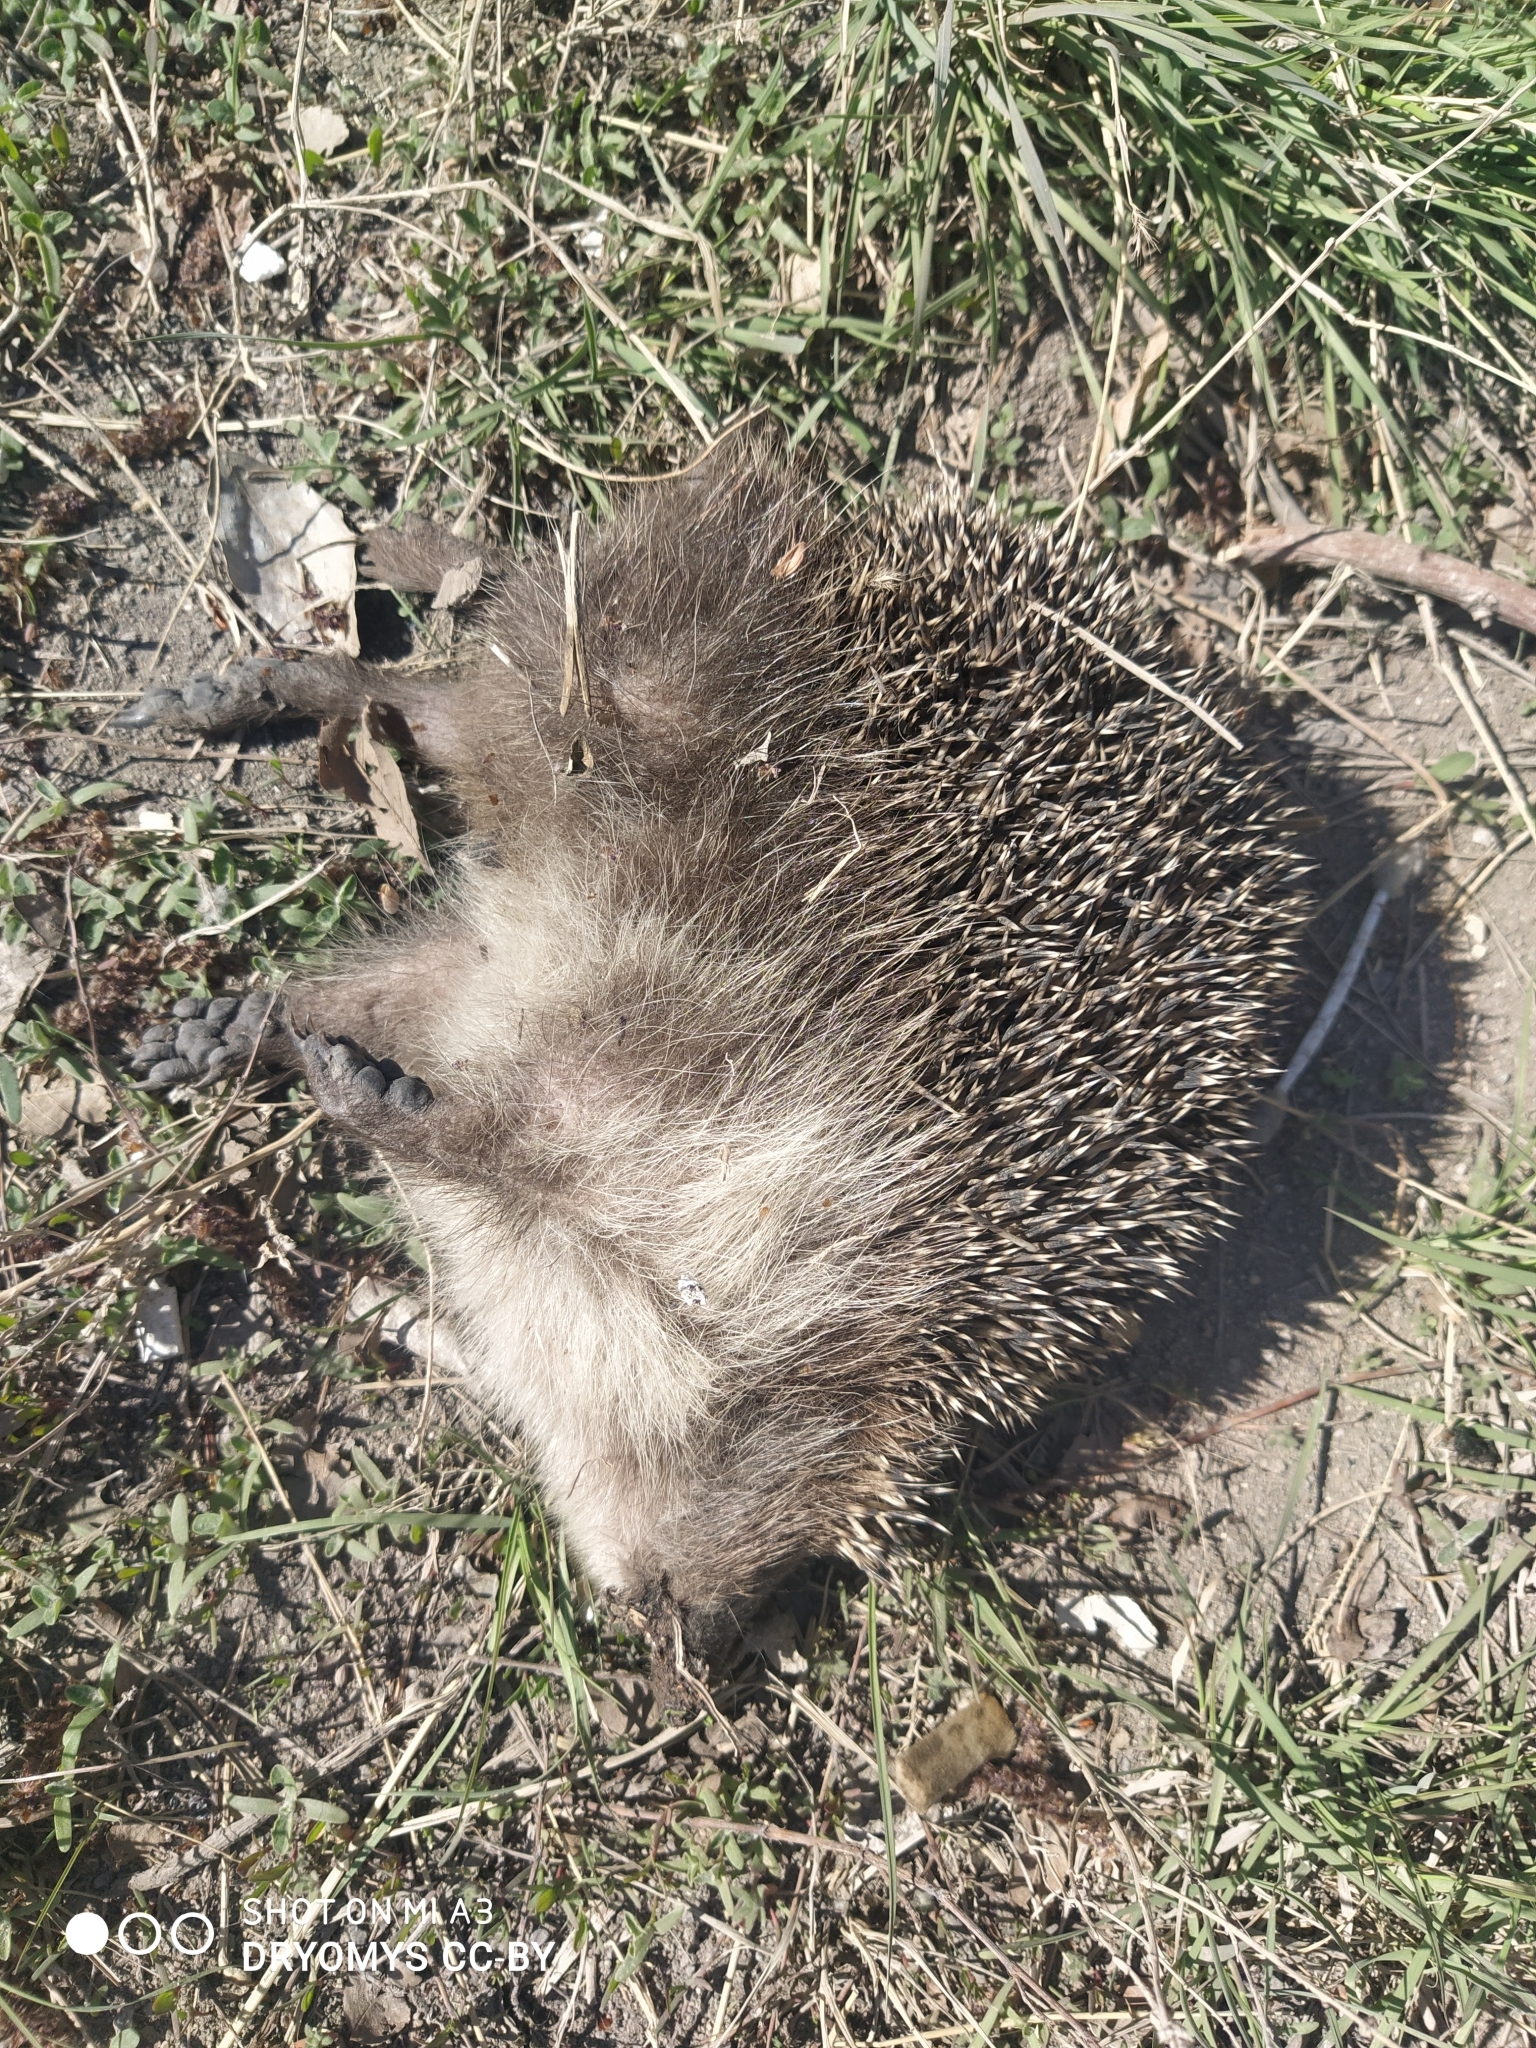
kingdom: Animalia
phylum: Chordata
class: Mammalia
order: Erinaceomorpha
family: Erinaceidae
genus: Erinaceus
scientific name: Erinaceus roumanicus
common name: Northern white-breasted hedgehog
